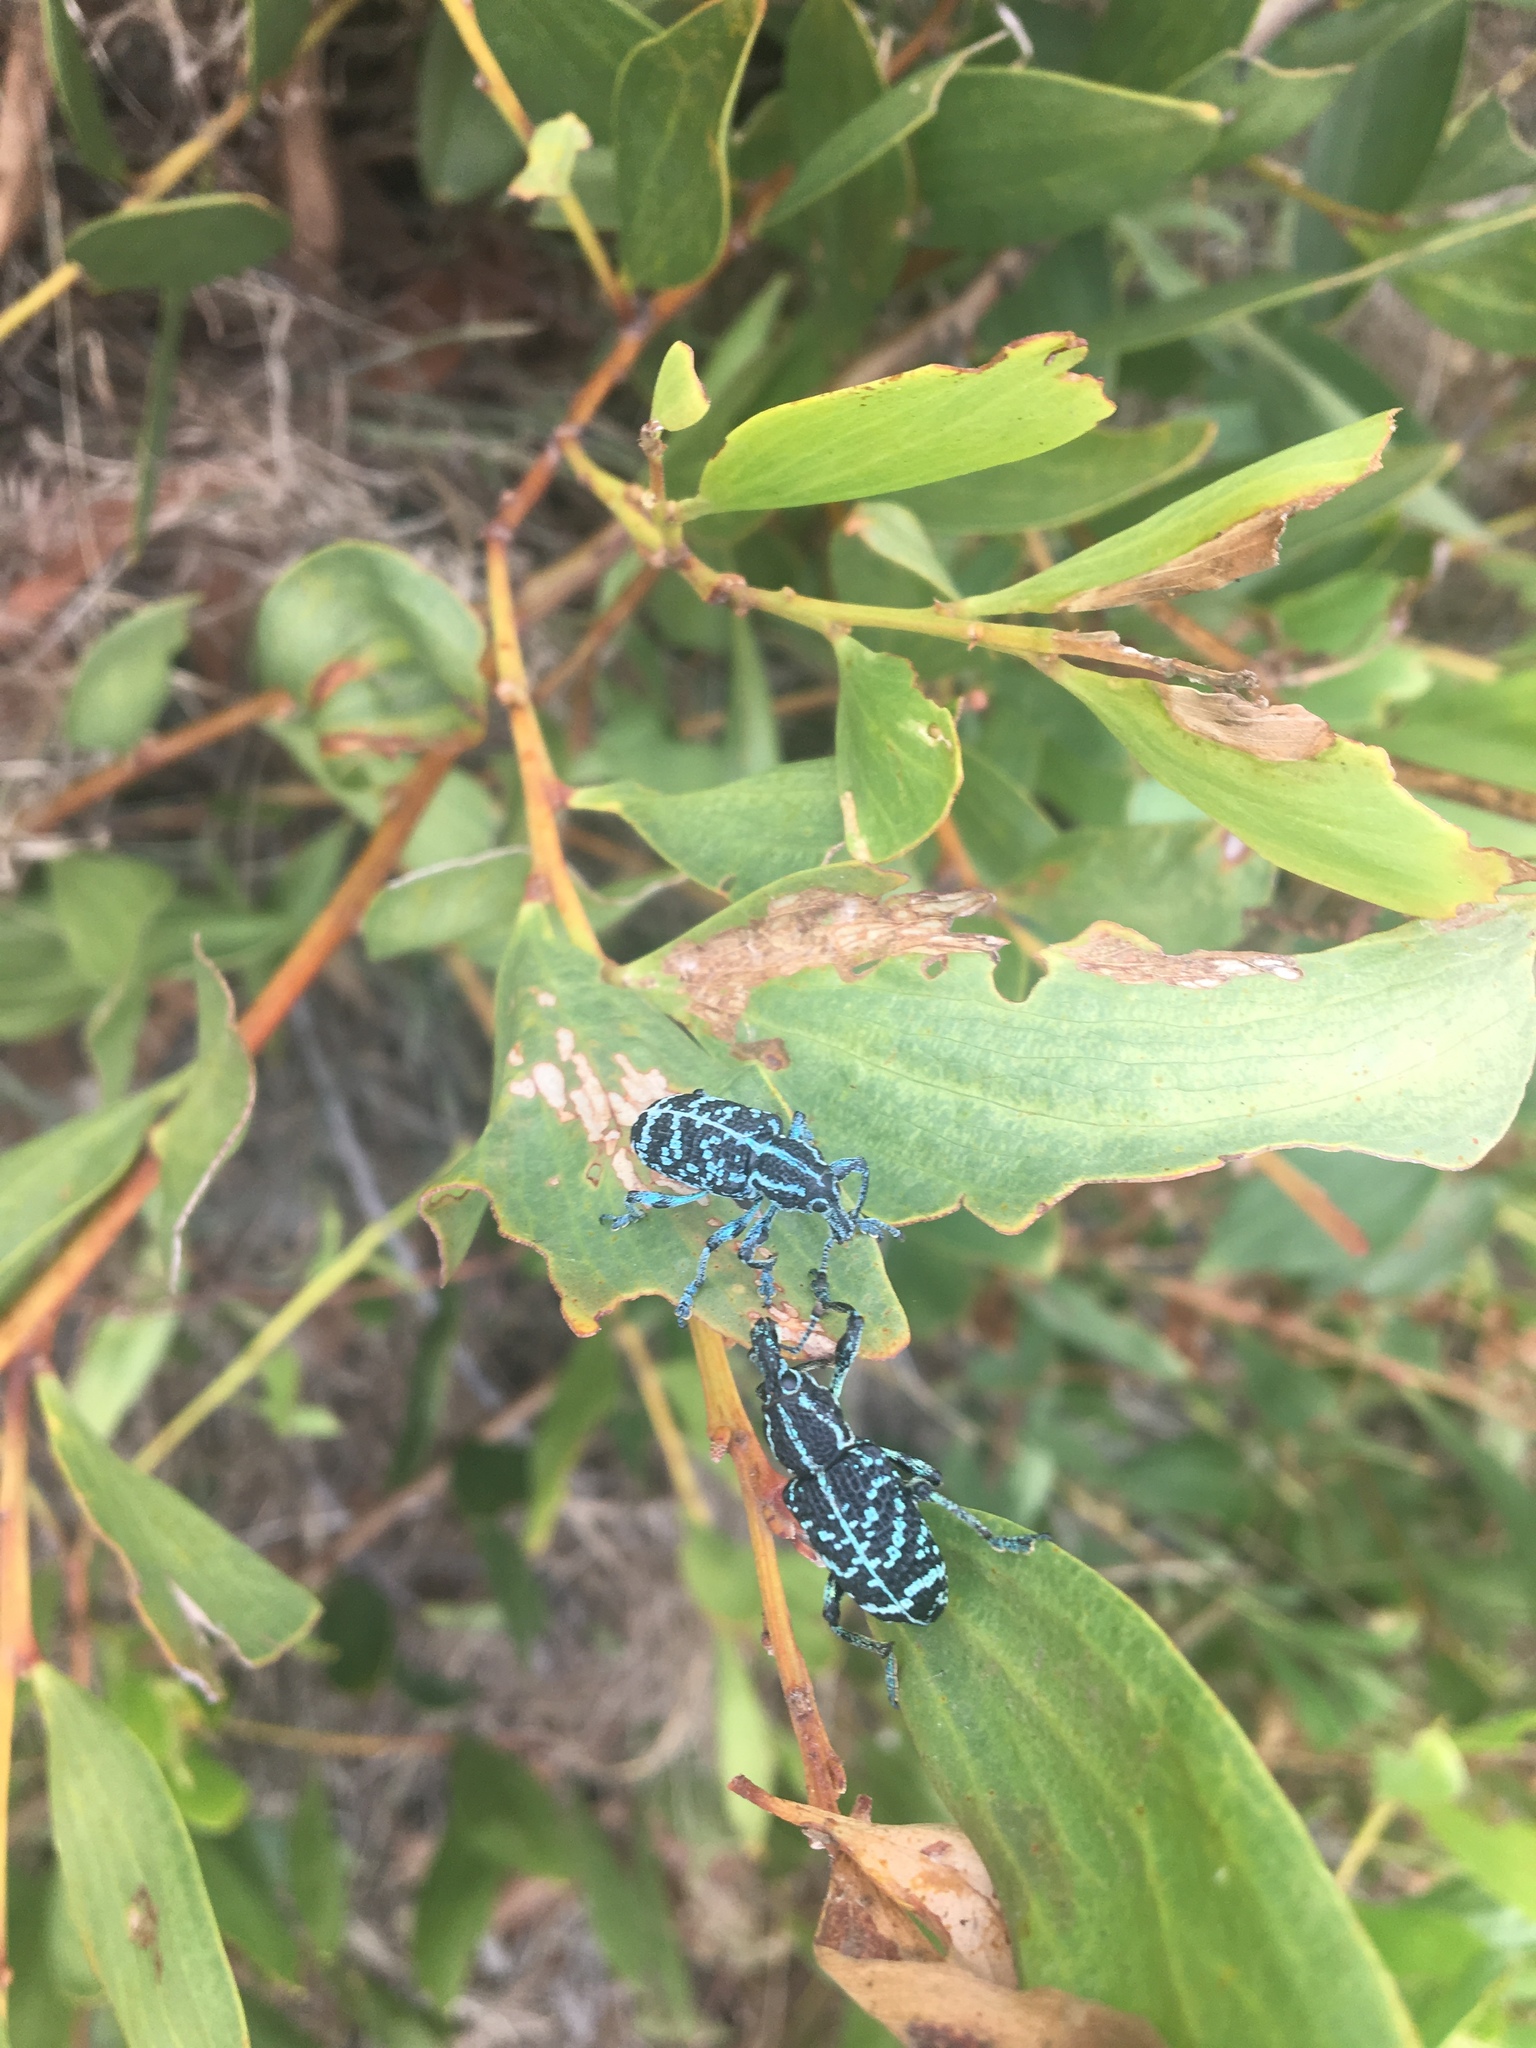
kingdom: Animalia
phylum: Arthropoda
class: Insecta
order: Coleoptera
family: Curculionidae
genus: Chrysolopus
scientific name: Chrysolopus spectabilis
